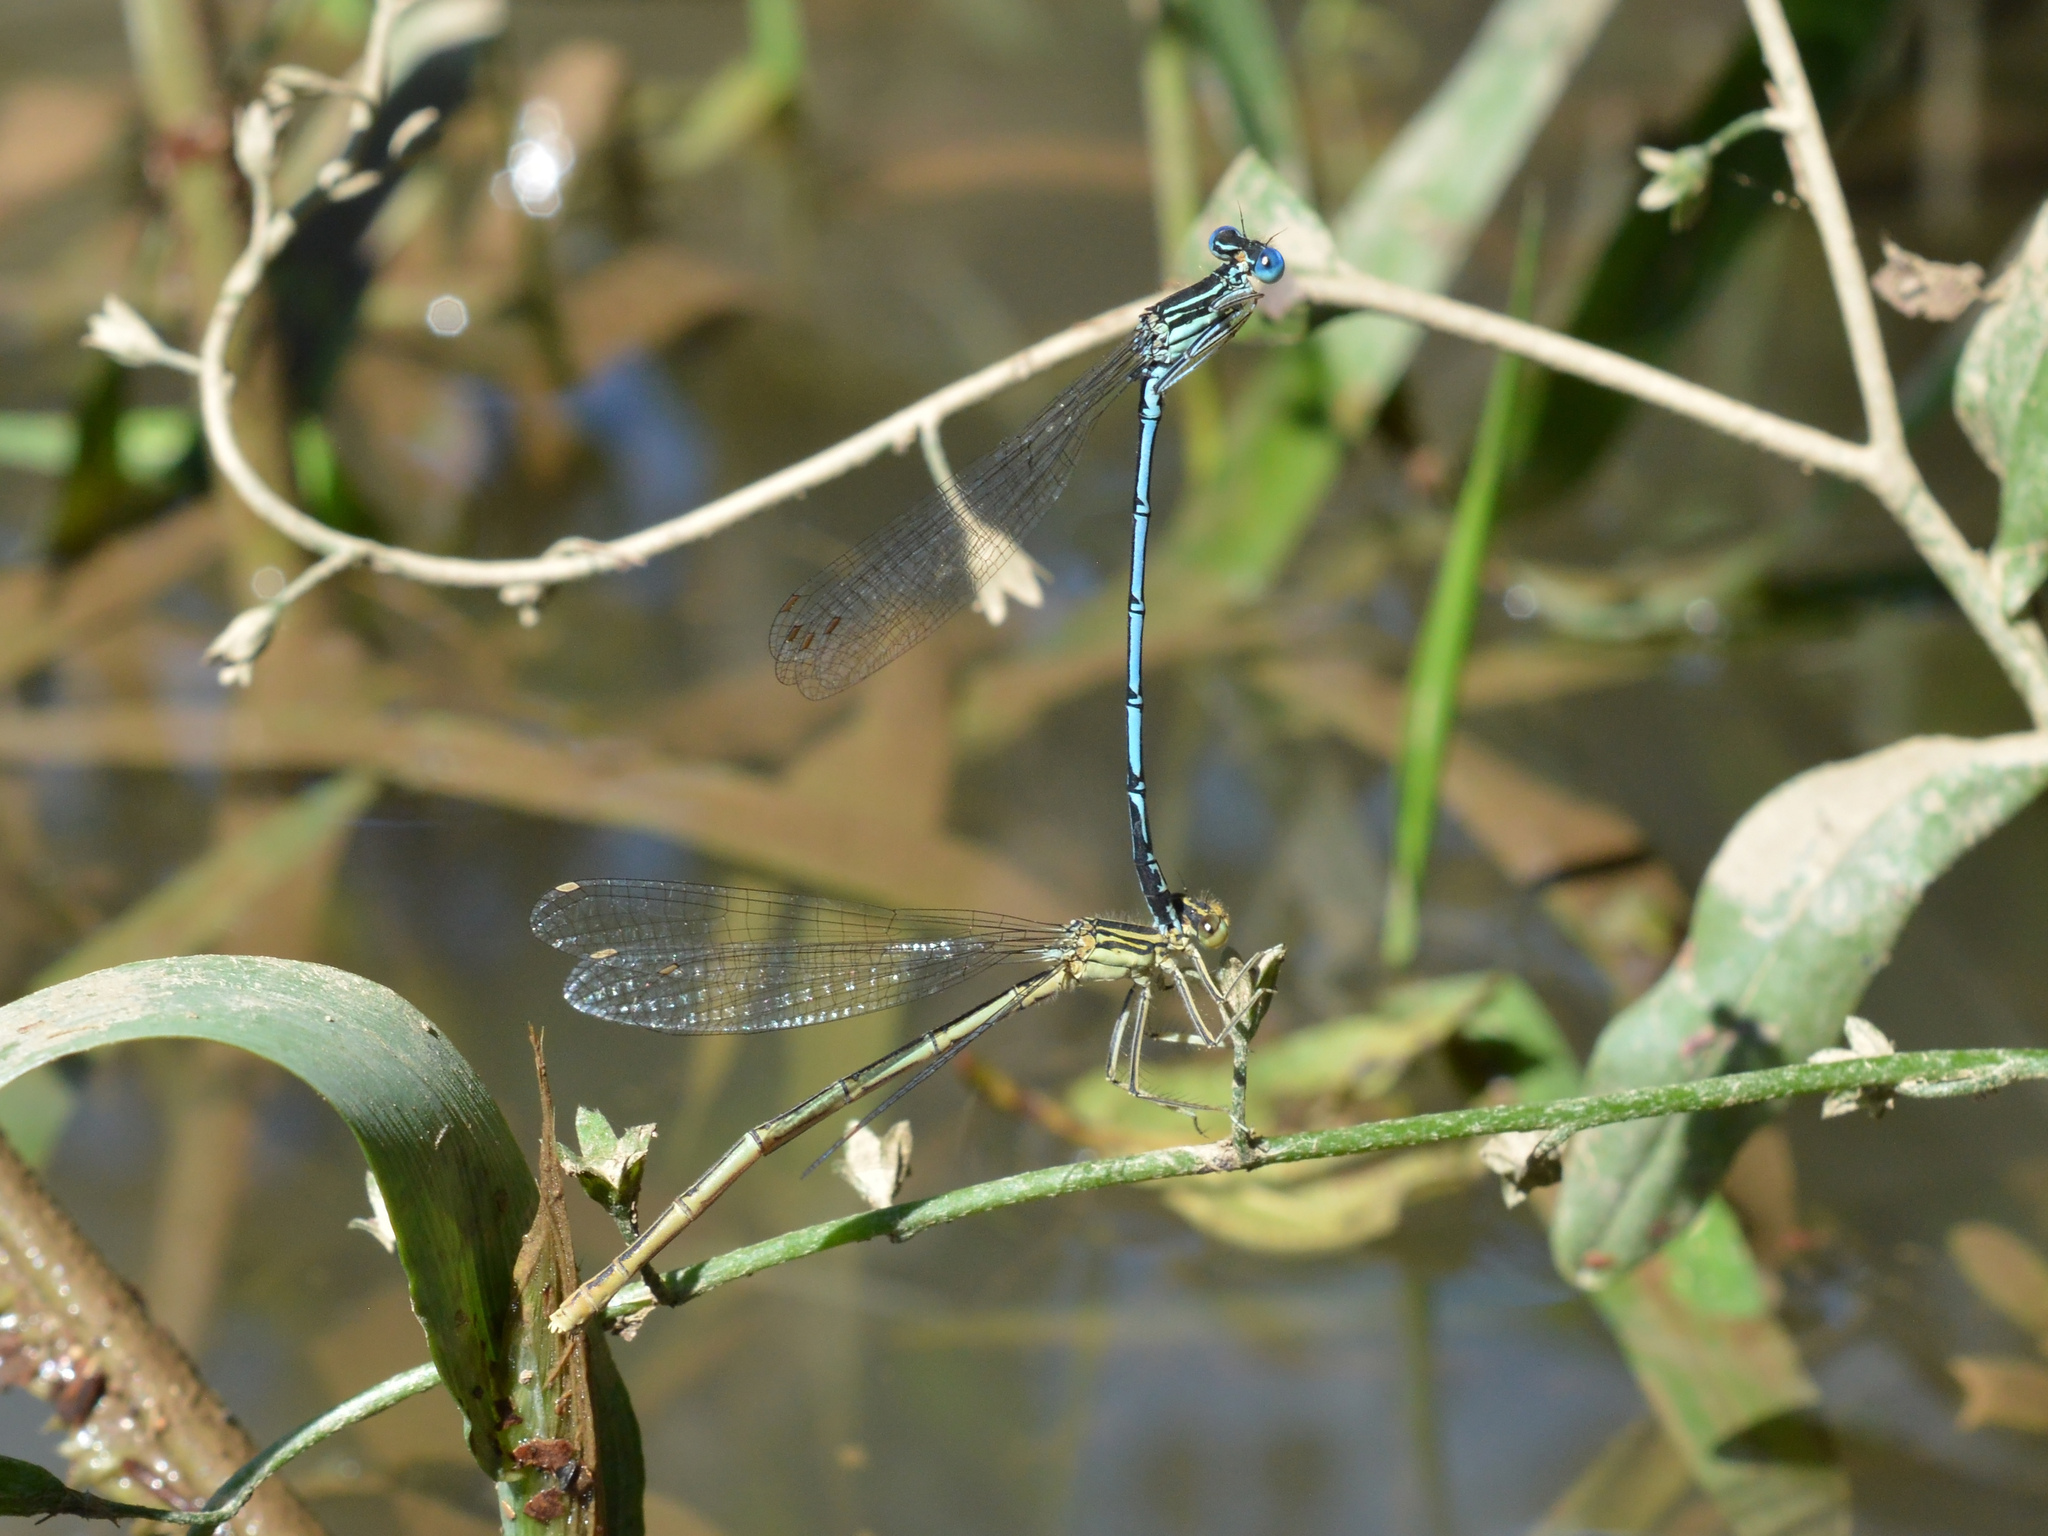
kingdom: Animalia
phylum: Arthropoda
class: Insecta
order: Odonata
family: Platycnemididae
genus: Platycnemis
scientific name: Platycnemis pennipes
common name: White-legged damselfly
